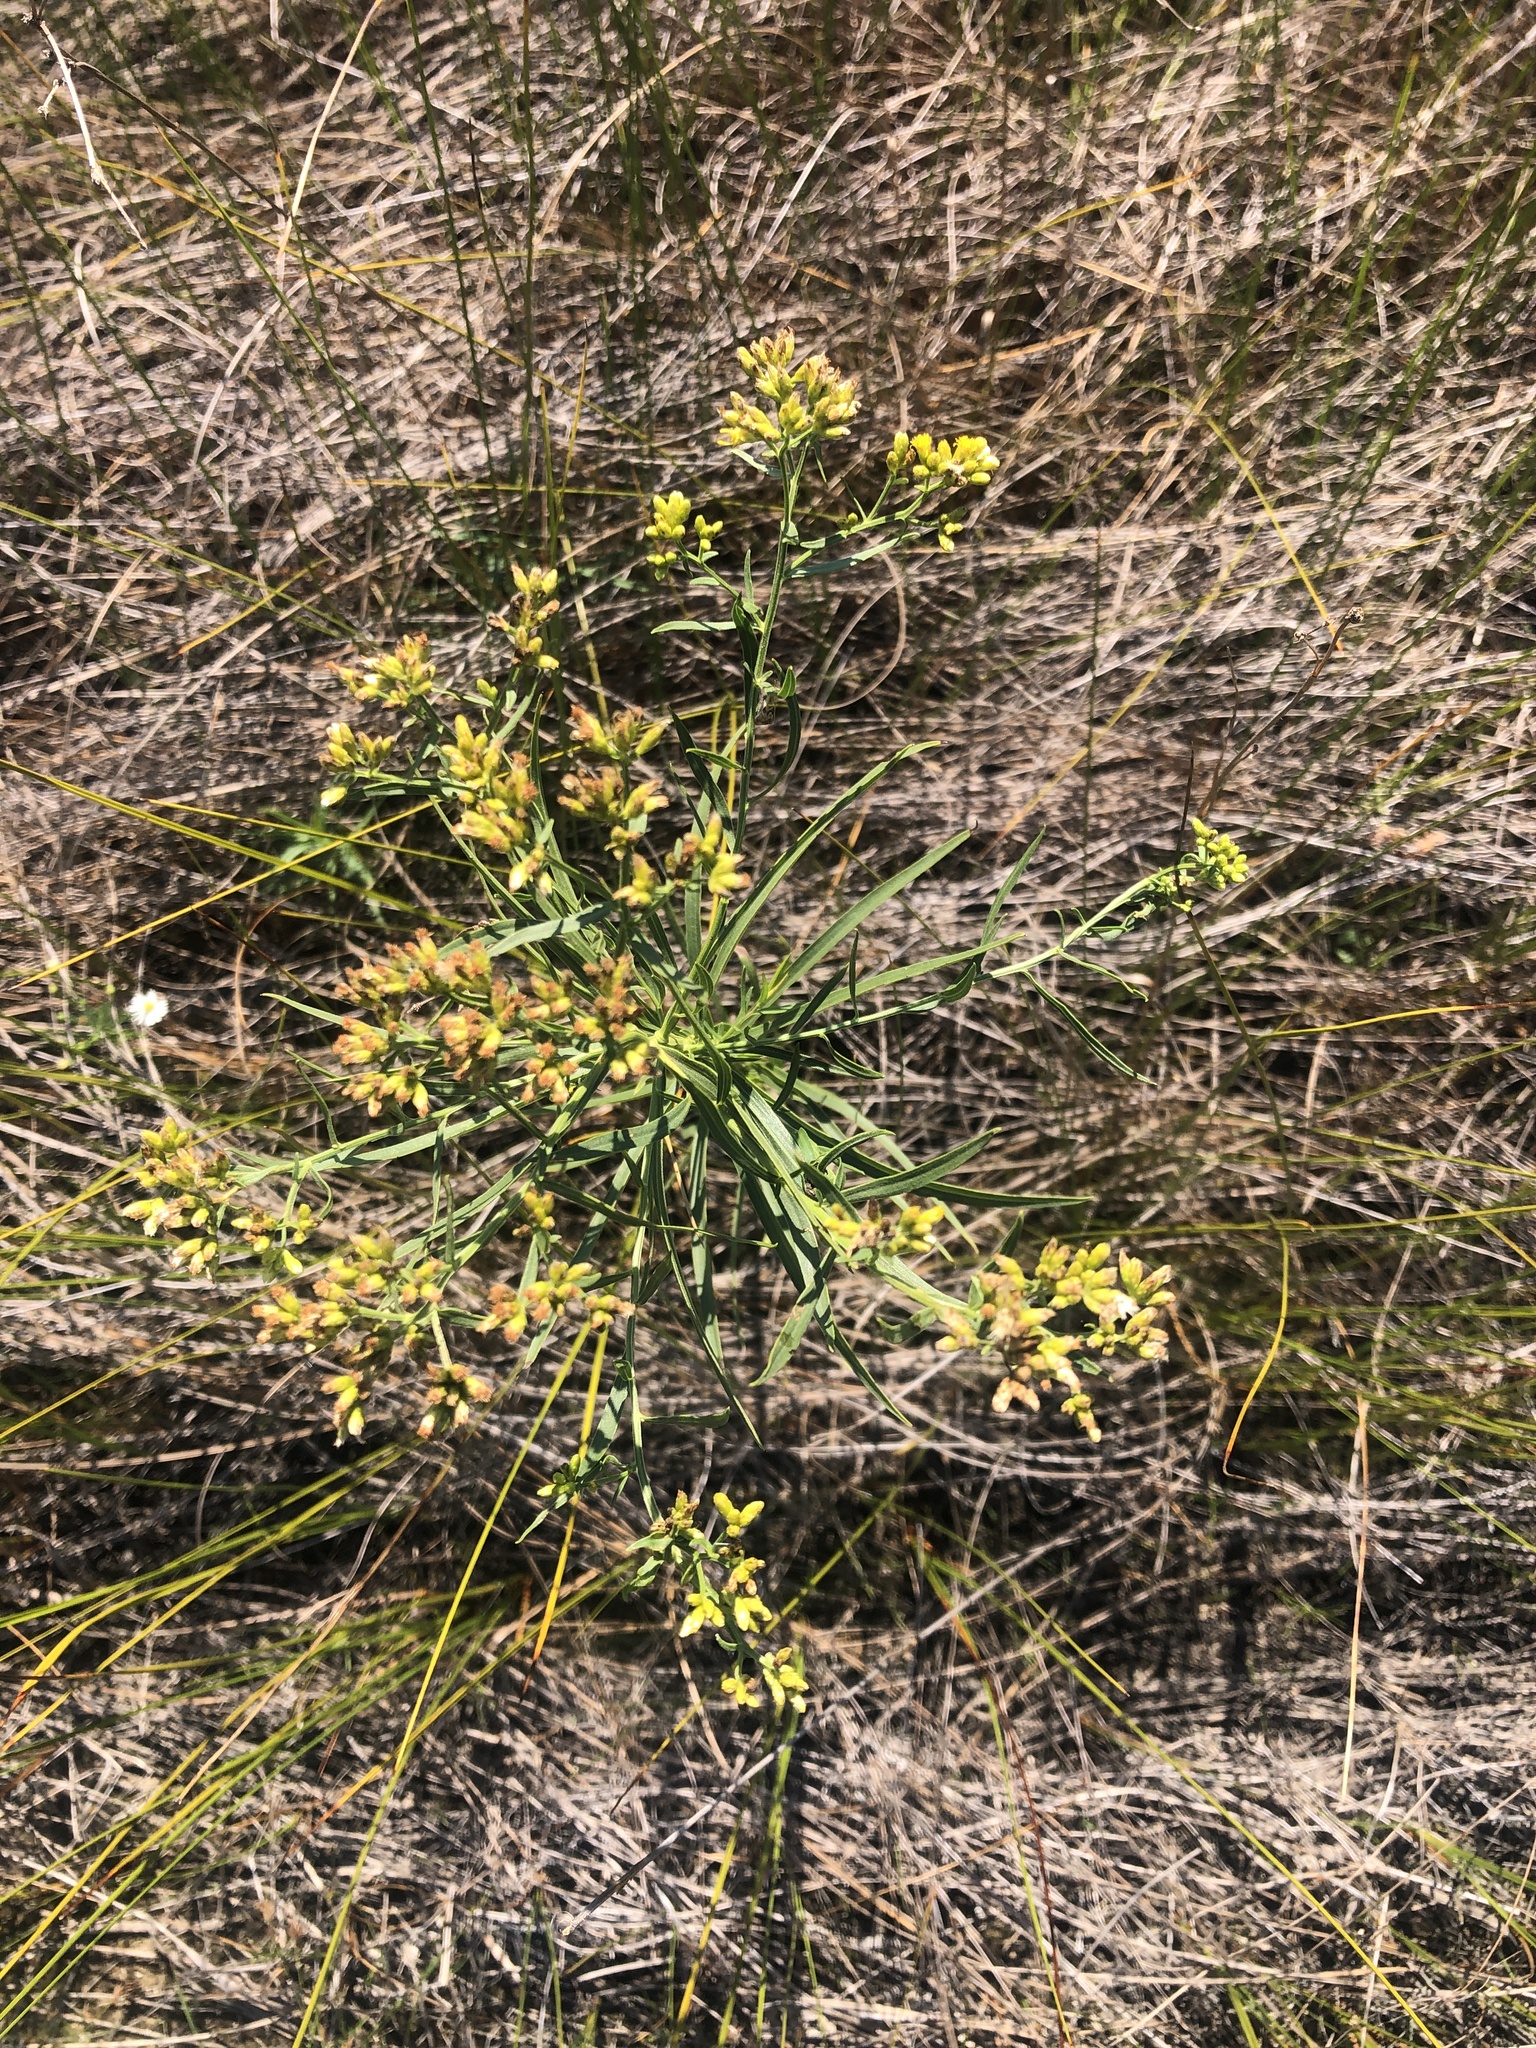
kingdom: Plantae
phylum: Tracheophyta
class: Magnoliopsida
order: Asterales
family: Asteraceae
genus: Euthamia
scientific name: Euthamia graminifolia
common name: Common goldentop
